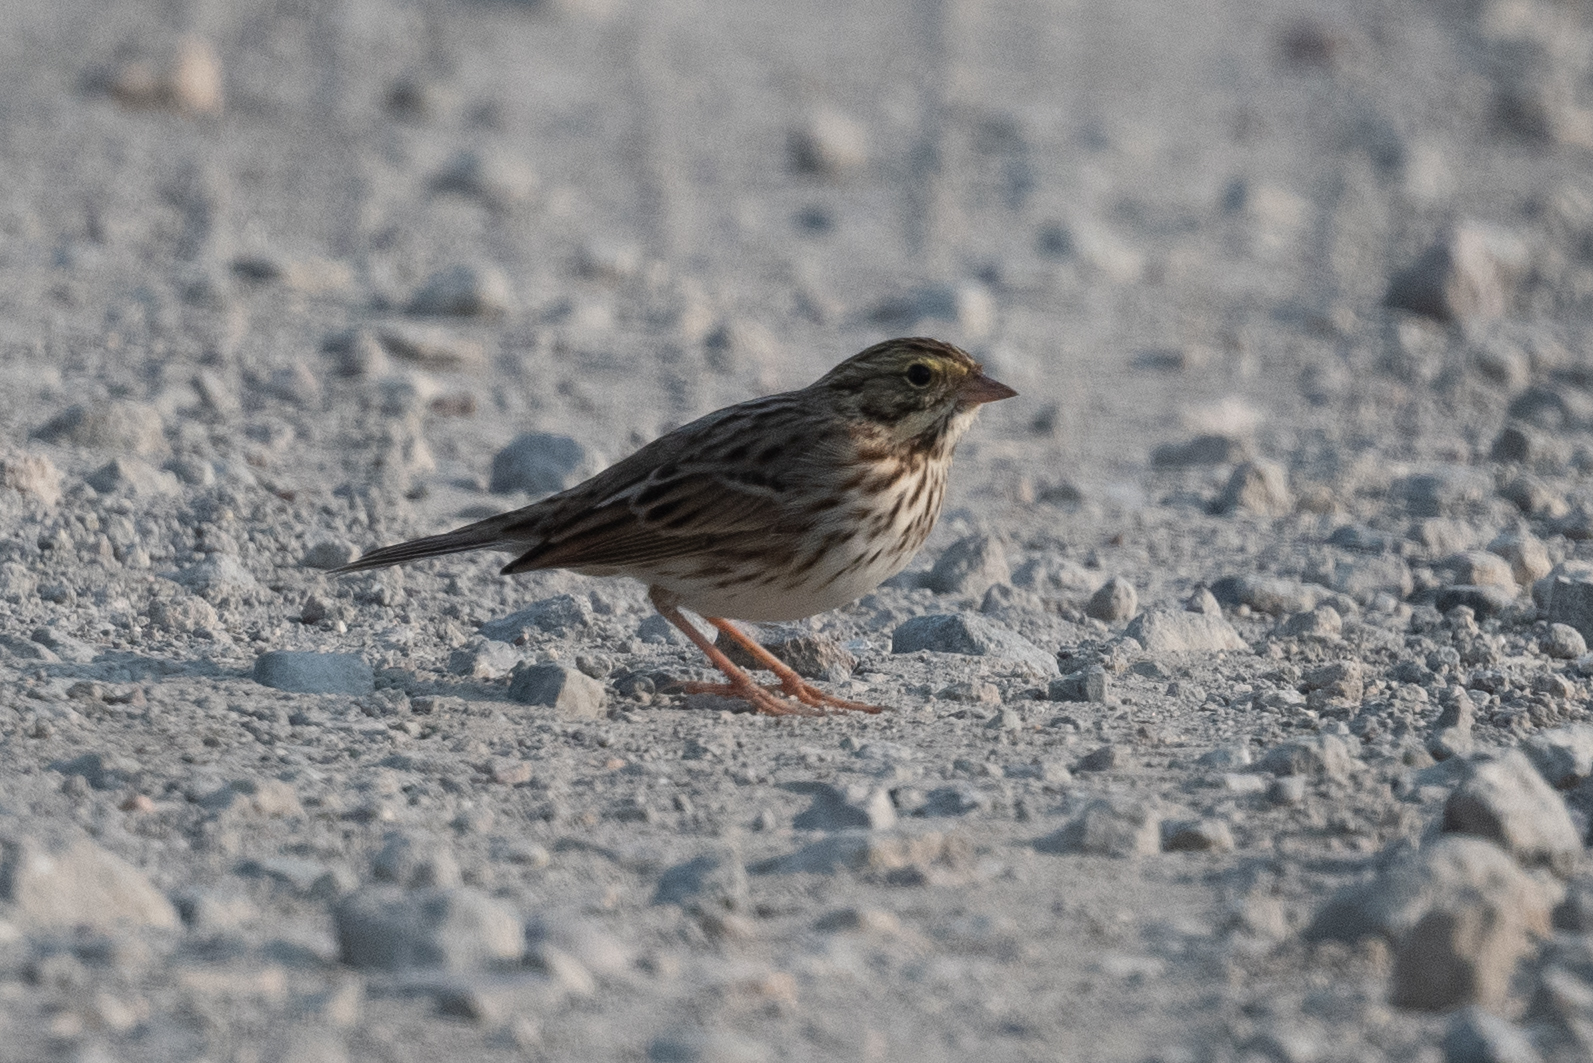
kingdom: Animalia
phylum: Chordata
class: Aves
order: Passeriformes
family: Passerellidae
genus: Passerculus
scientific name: Passerculus sandwichensis
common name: Savannah sparrow
